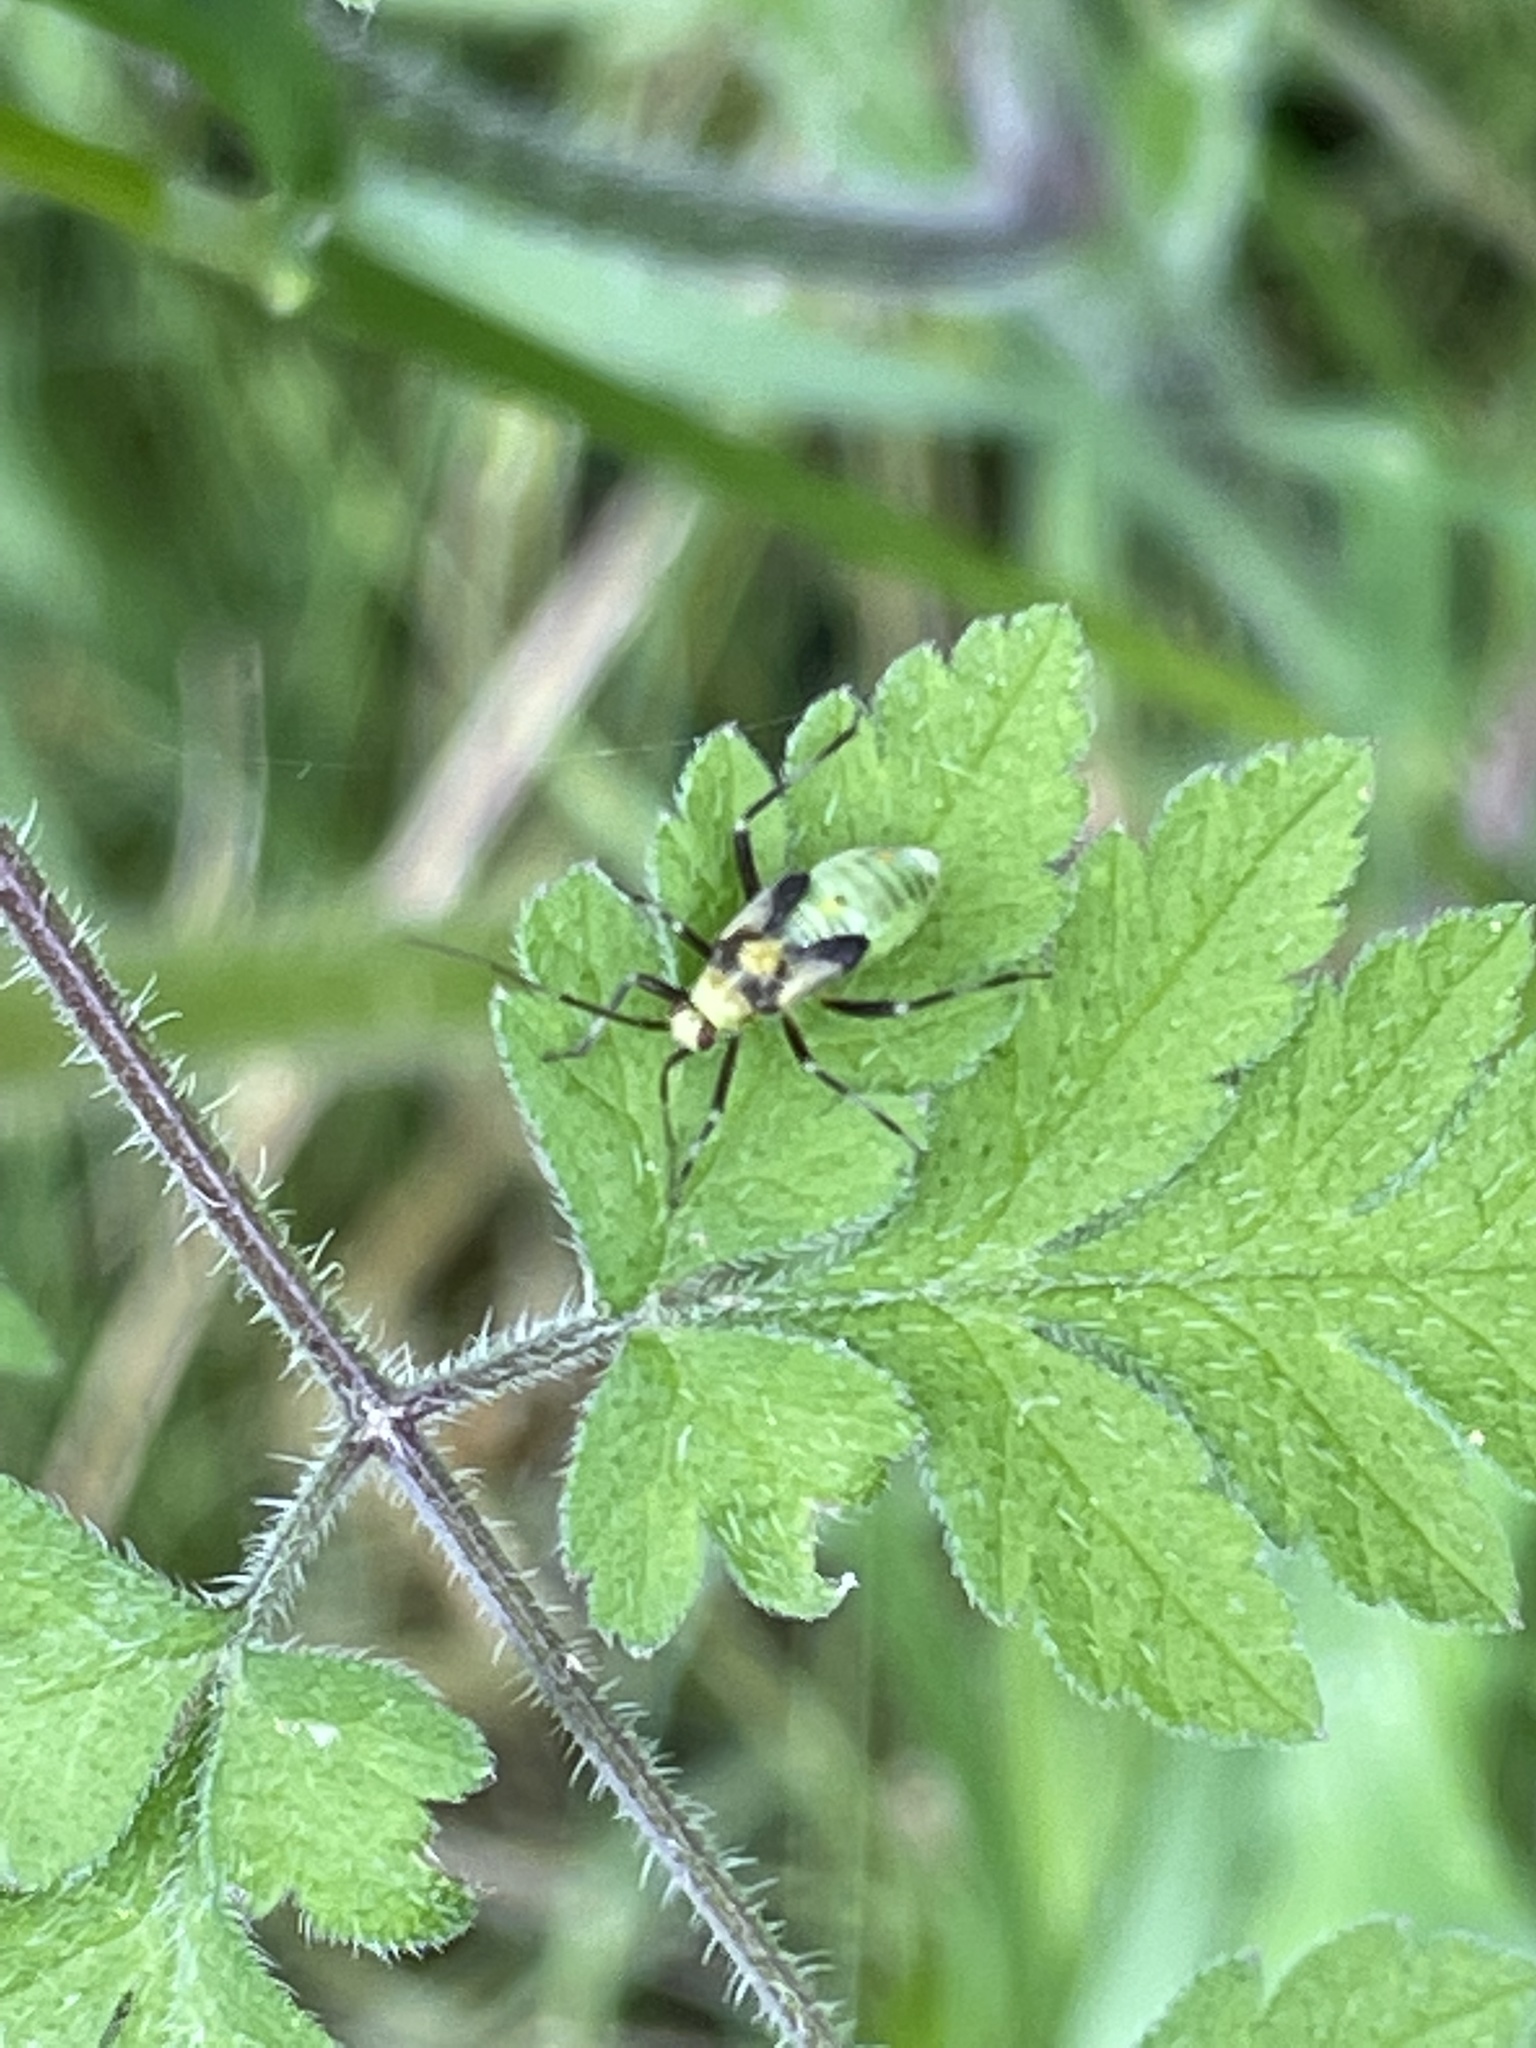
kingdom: Animalia
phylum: Arthropoda
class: Insecta
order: Hemiptera
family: Miridae
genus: Calocoris
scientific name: Calocoris alpestris
